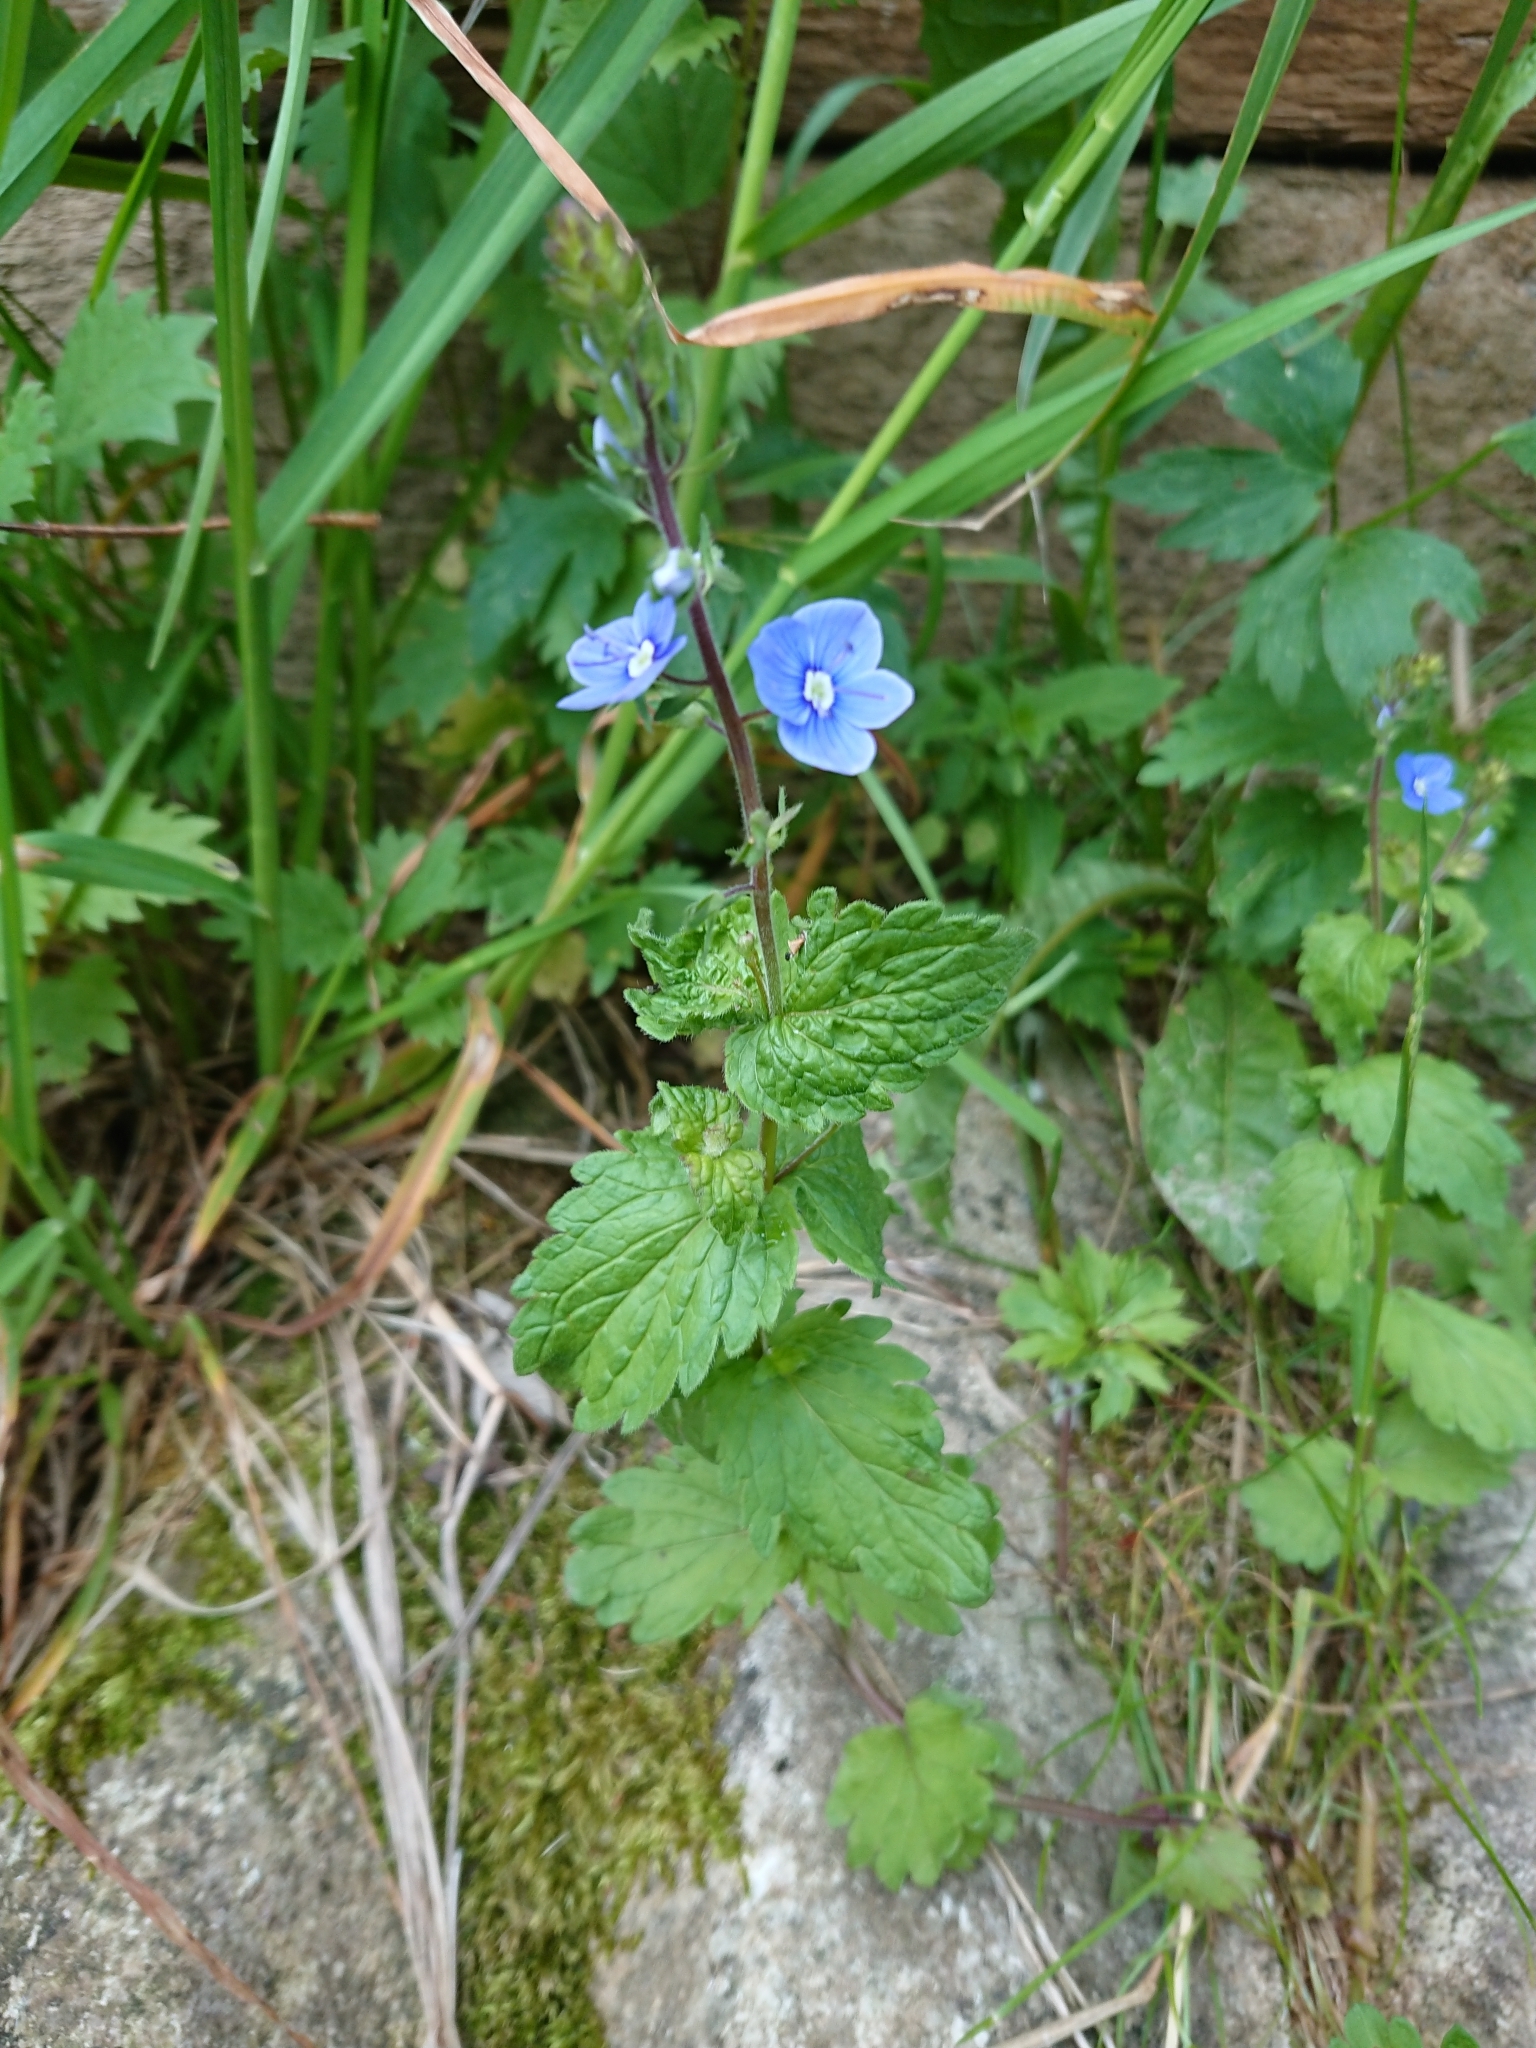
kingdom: Plantae
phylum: Tracheophyta
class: Magnoliopsida
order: Lamiales
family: Plantaginaceae
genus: Veronica
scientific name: Veronica chamaedrys
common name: Germander speedwell
